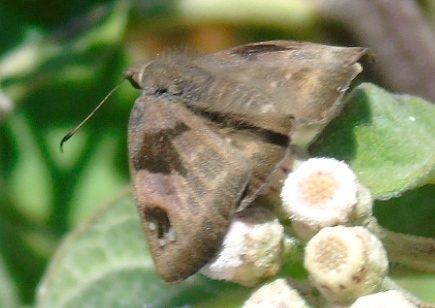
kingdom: Animalia
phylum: Arthropoda
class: Insecta
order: Lepidoptera
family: Hesperiidae
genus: Arteurotia
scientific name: Arteurotia tractipennis
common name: Starred skipper
